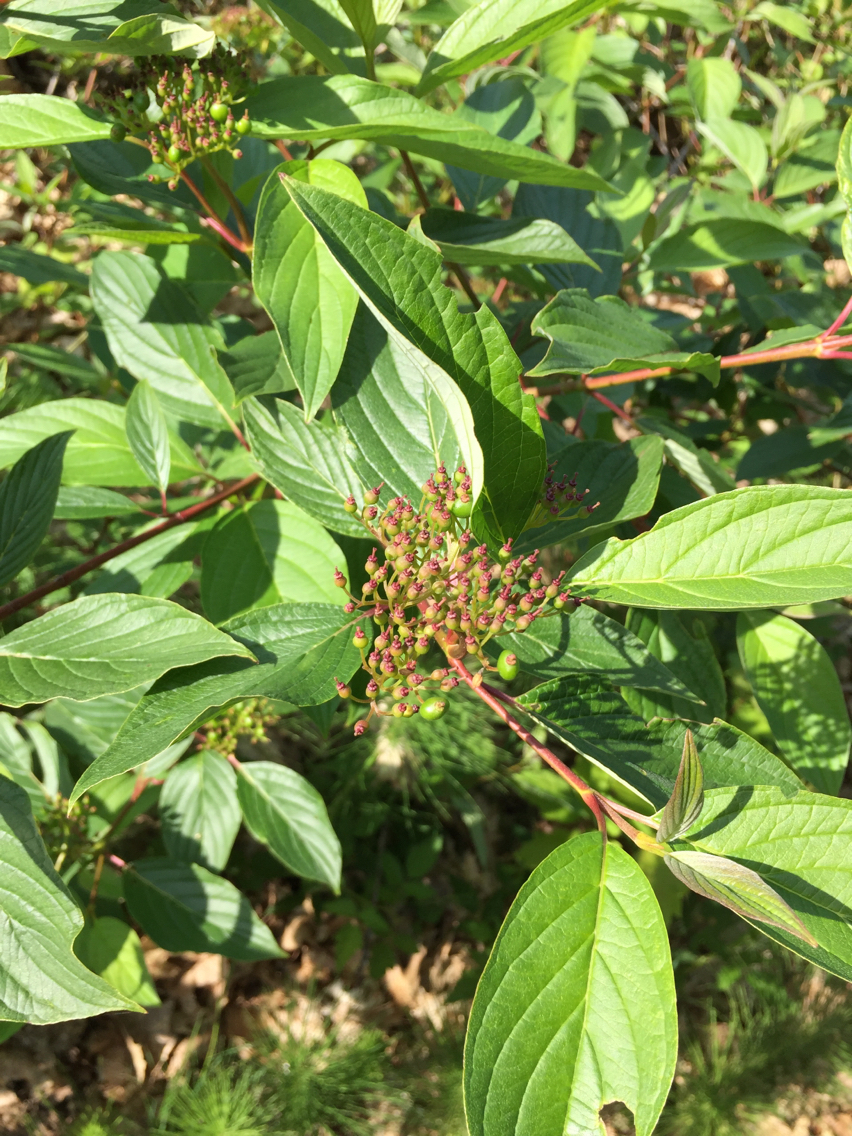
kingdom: Plantae
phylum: Tracheophyta
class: Magnoliopsida
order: Cornales
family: Cornaceae
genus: Cornus
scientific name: Cornus sericea
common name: Red-osier dogwood
